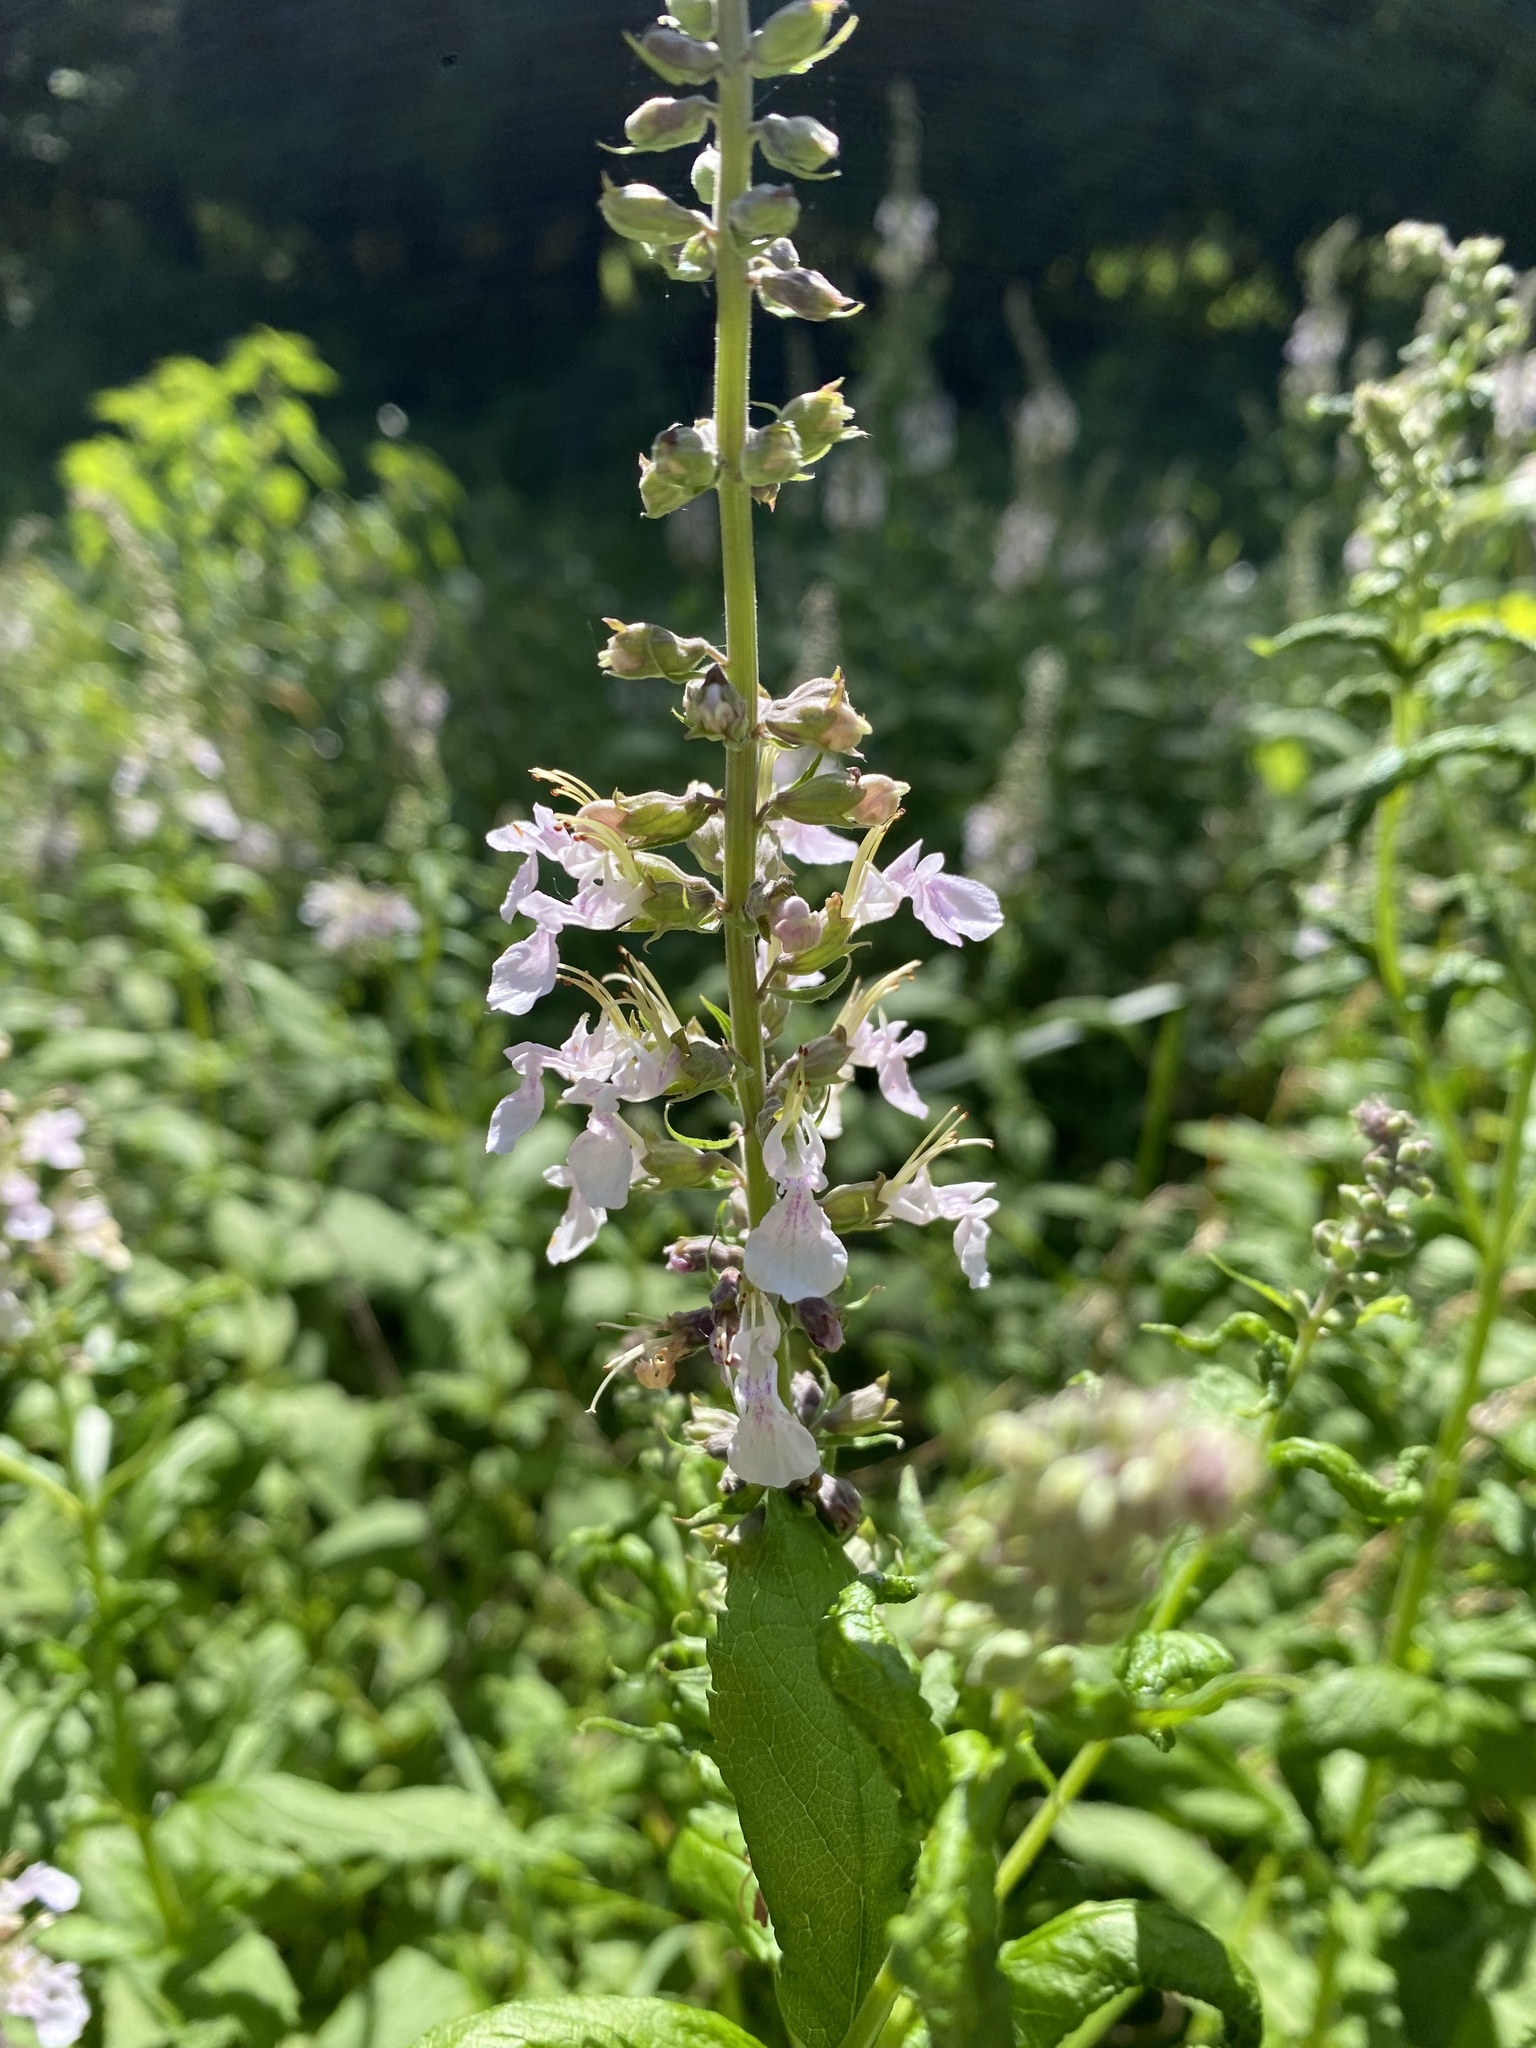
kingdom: Plantae
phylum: Tracheophyta
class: Magnoliopsida
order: Lamiales
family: Lamiaceae
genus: Teucrium
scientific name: Teucrium canadense
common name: American germander
